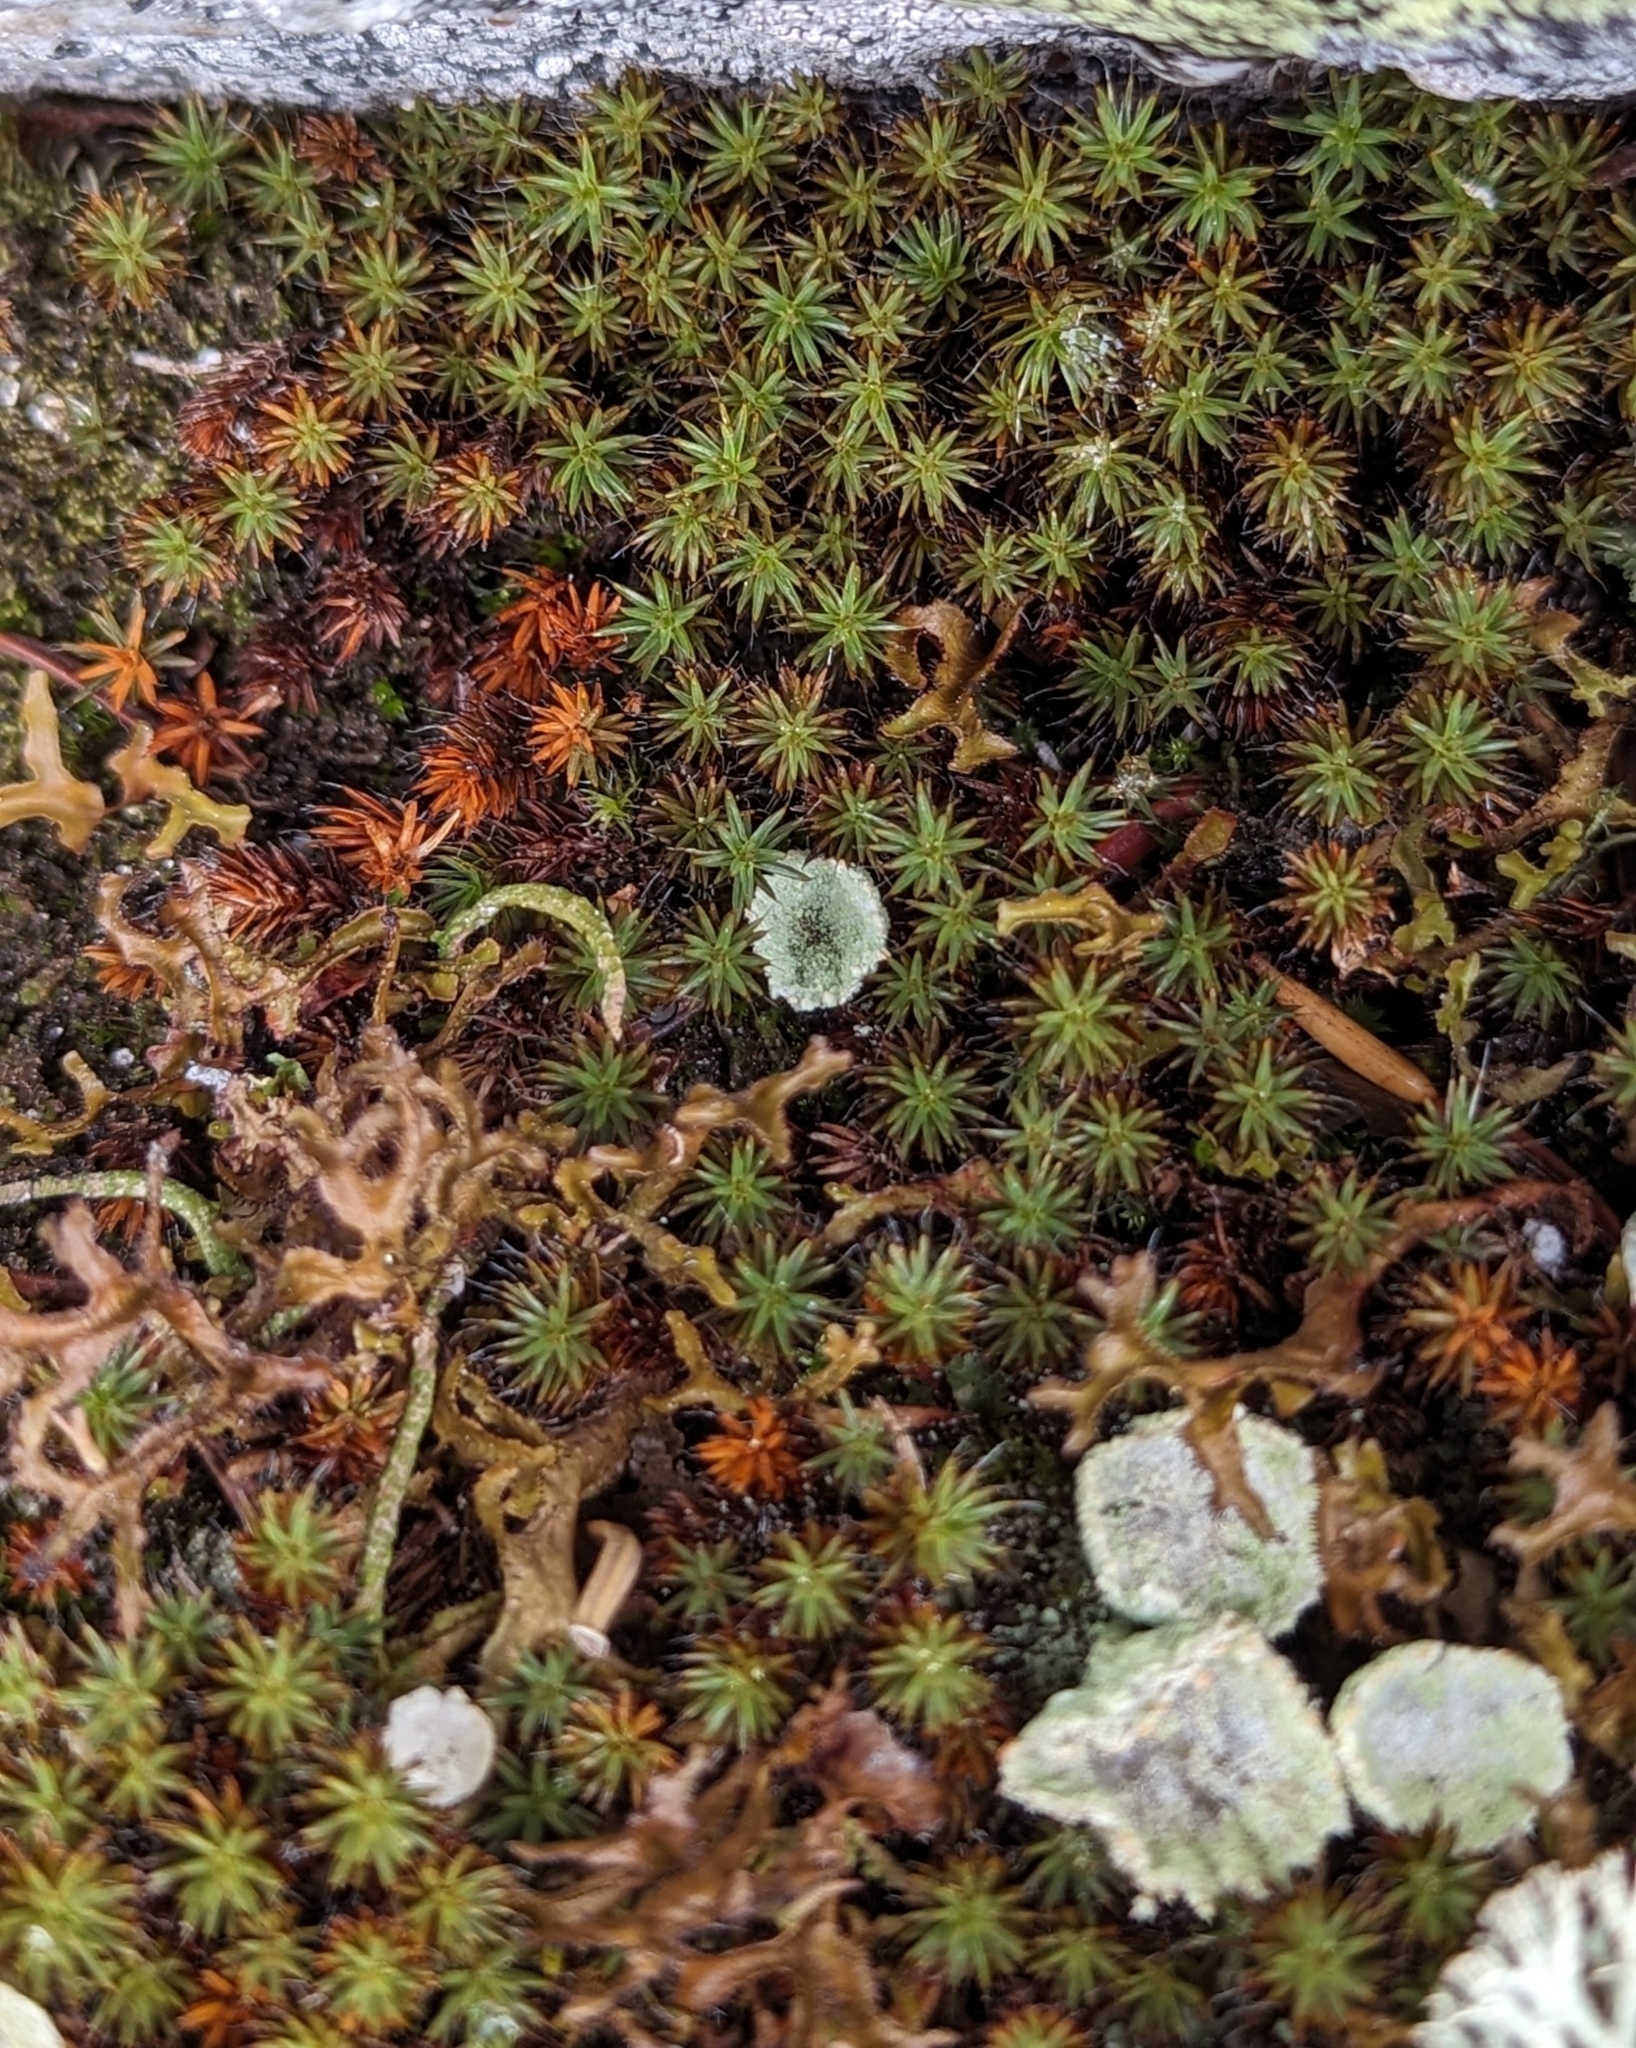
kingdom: Plantae
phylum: Bryophyta
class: Polytrichopsida
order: Polytrichales
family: Polytrichaceae
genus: Polytrichum
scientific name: Polytrichum piliferum
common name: Bristly haircap
